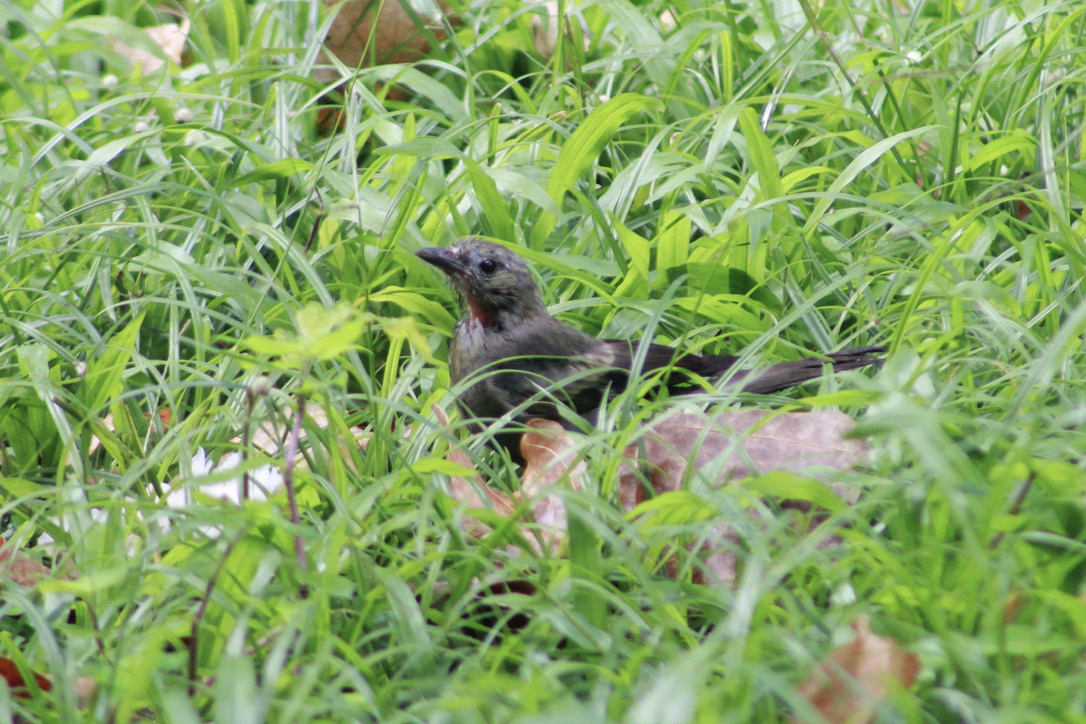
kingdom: Animalia
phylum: Chordata
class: Aves
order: Passeriformes
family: Thraupidae
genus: Thraupis
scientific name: Thraupis palmarum
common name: Palm tanager
